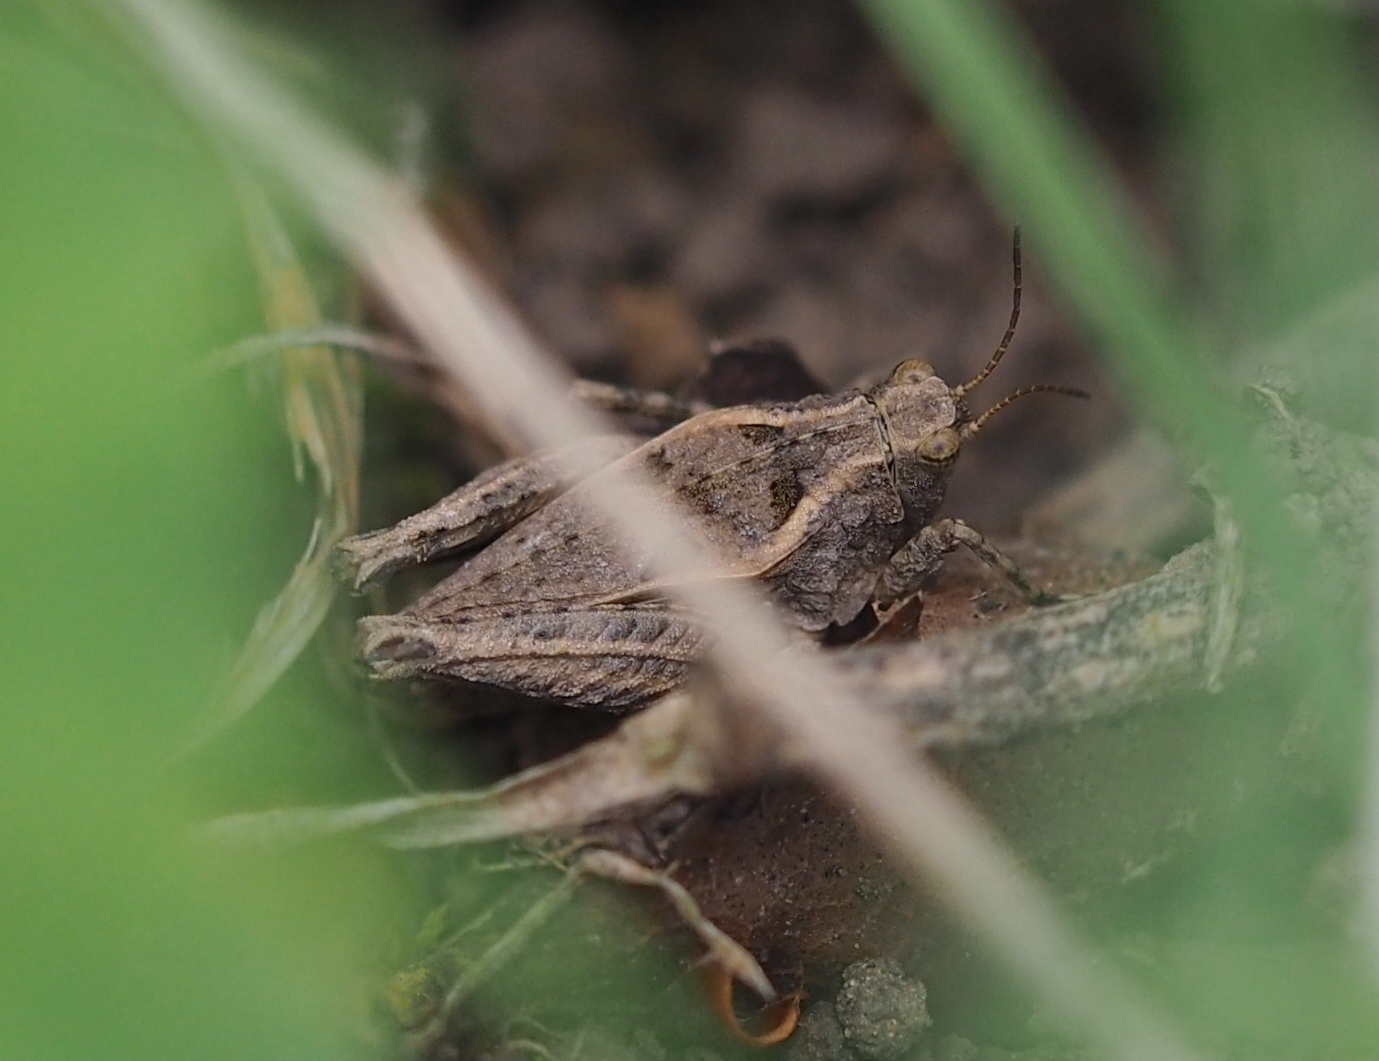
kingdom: Animalia
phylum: Arthropoda
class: Insecta
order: Orthoptera
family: Tetrigidae
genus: Tetrix
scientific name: Tetrix tenuicornis
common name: Long-horned groundhopper
